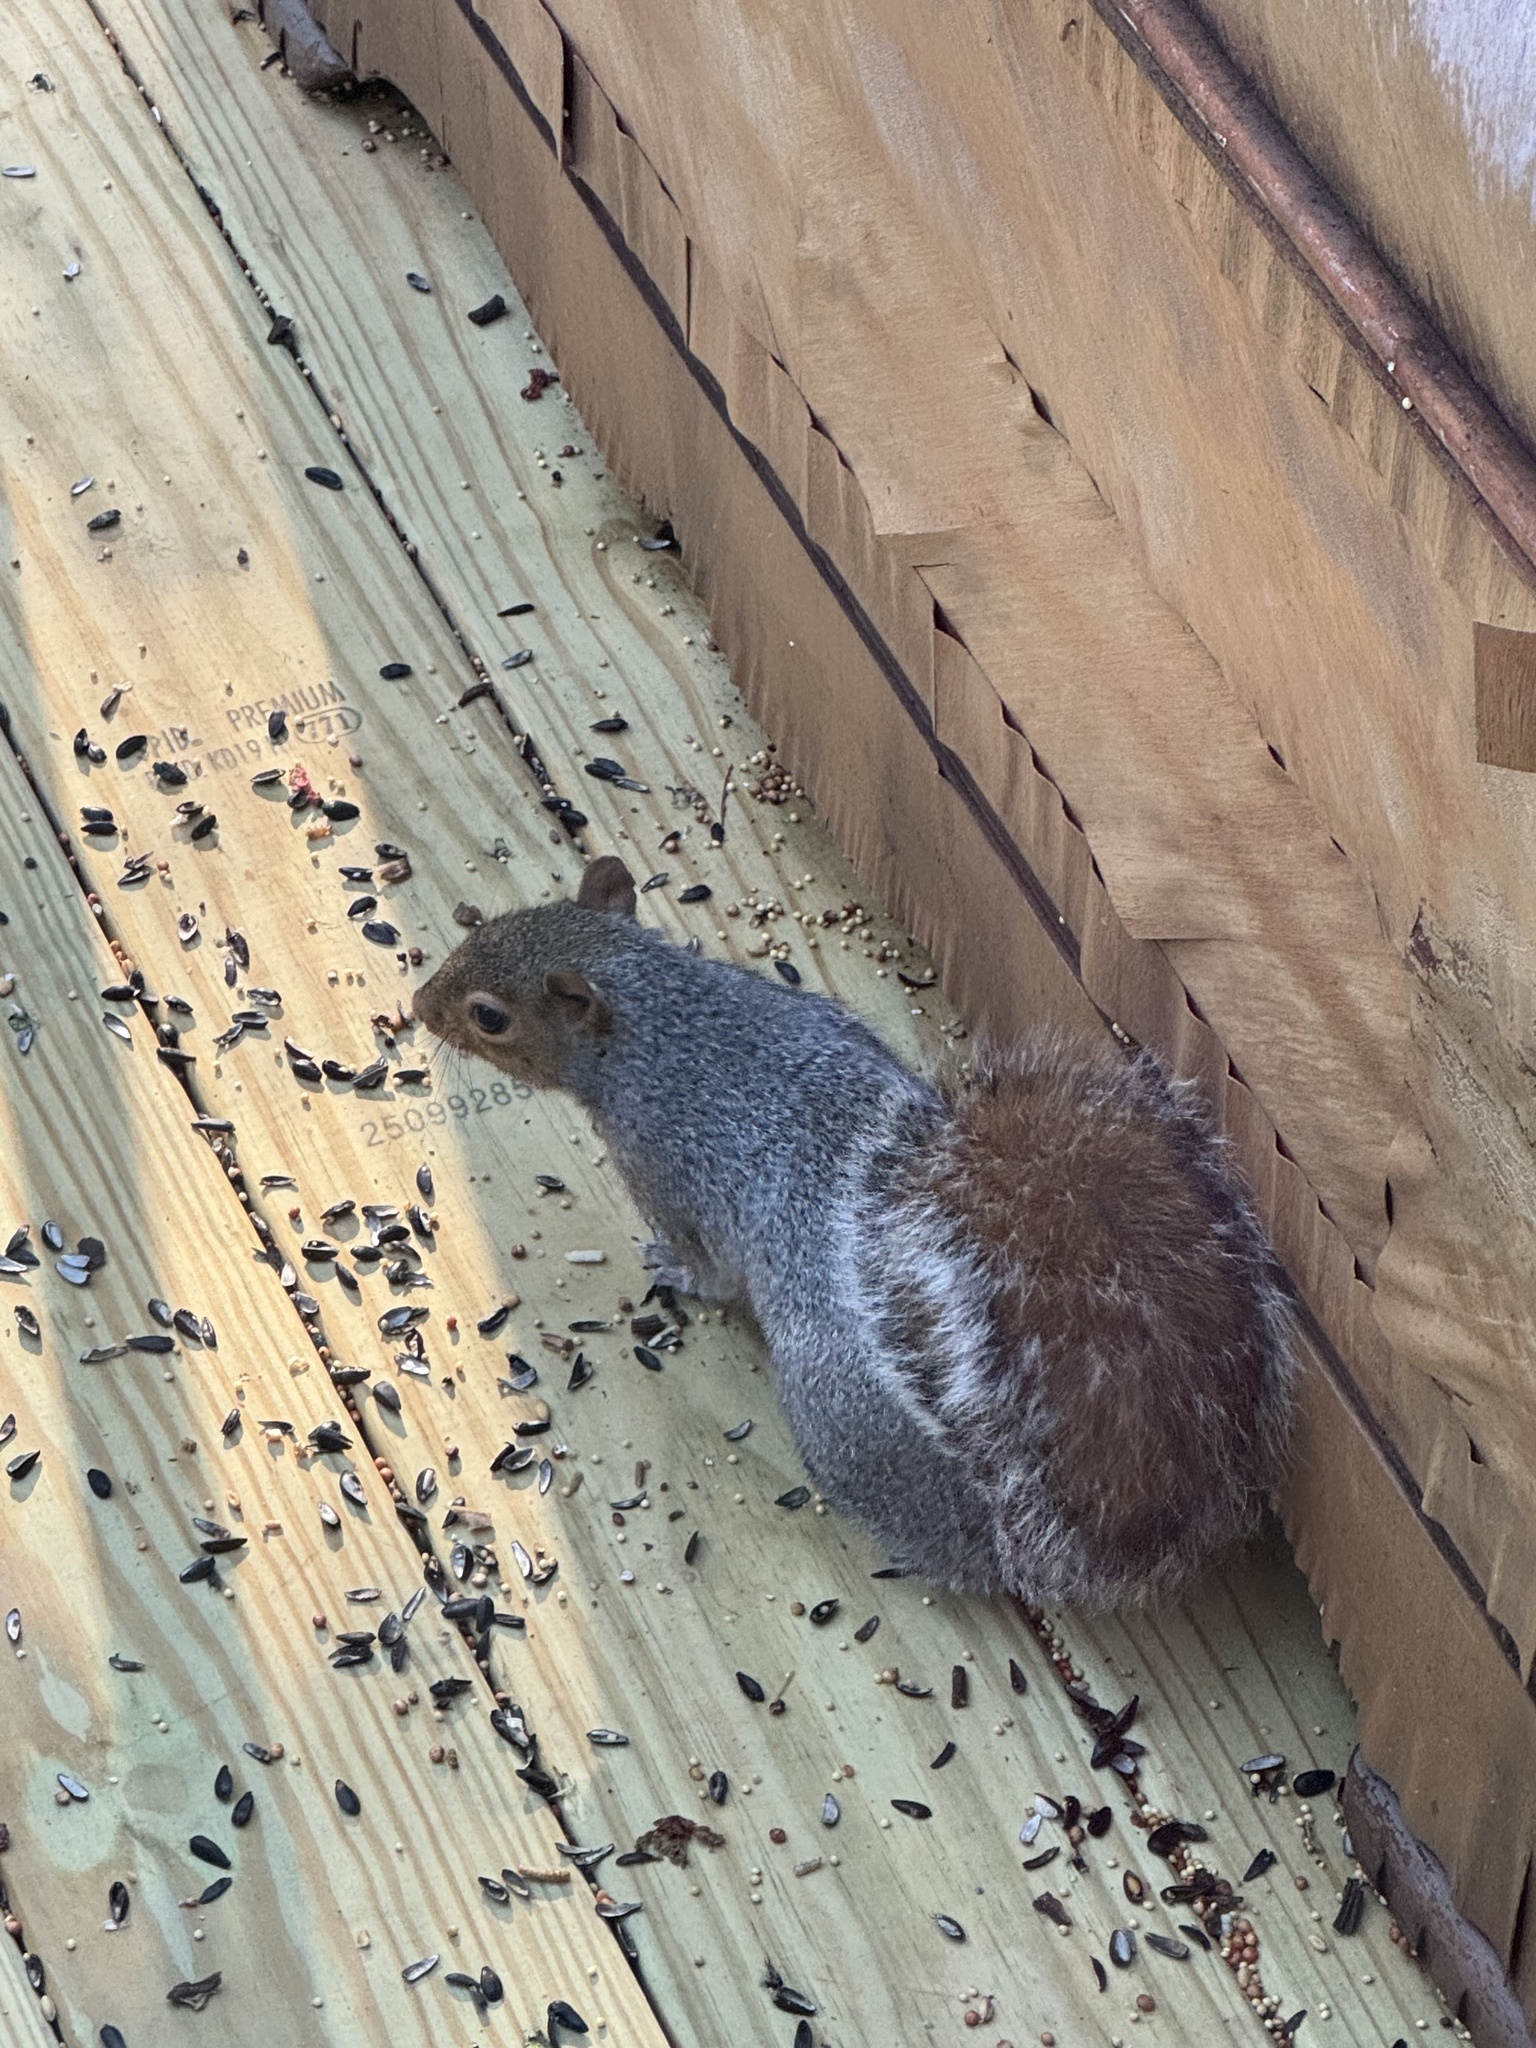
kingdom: Animalia
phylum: Chordata
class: Mammalia
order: Rodentia
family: Sciuridae
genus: Sciurus
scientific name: Sciurus carolinensis
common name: Eastern gray squirrel
